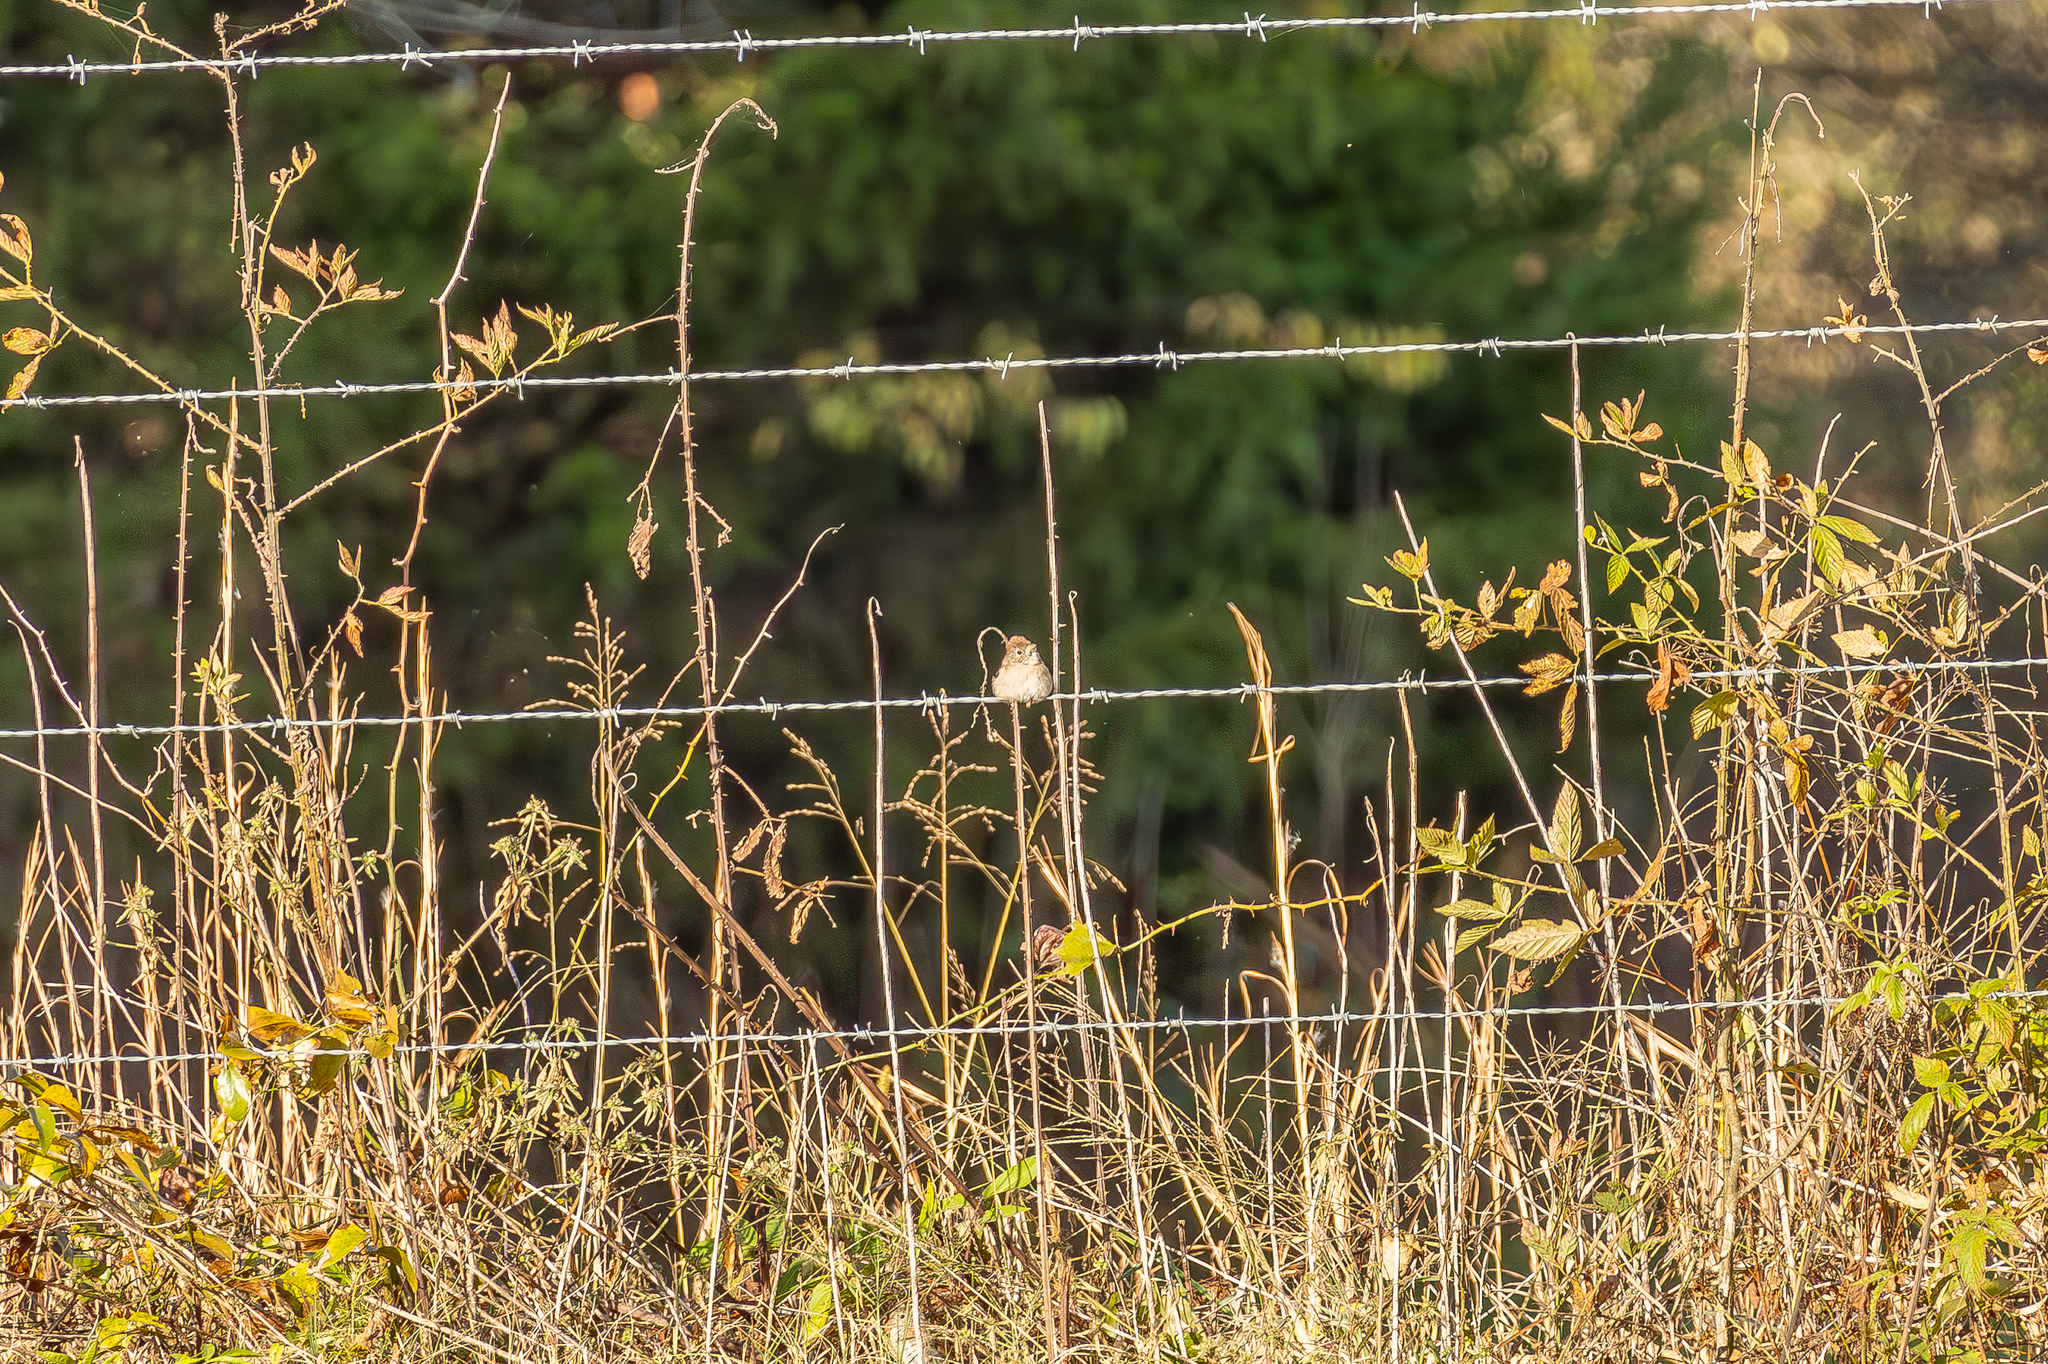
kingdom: Animalia
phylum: Chordata
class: Aves
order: Passeriformes
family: Passerellidae
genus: Spizella
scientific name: Spizella pusilla
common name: Field sparrow
